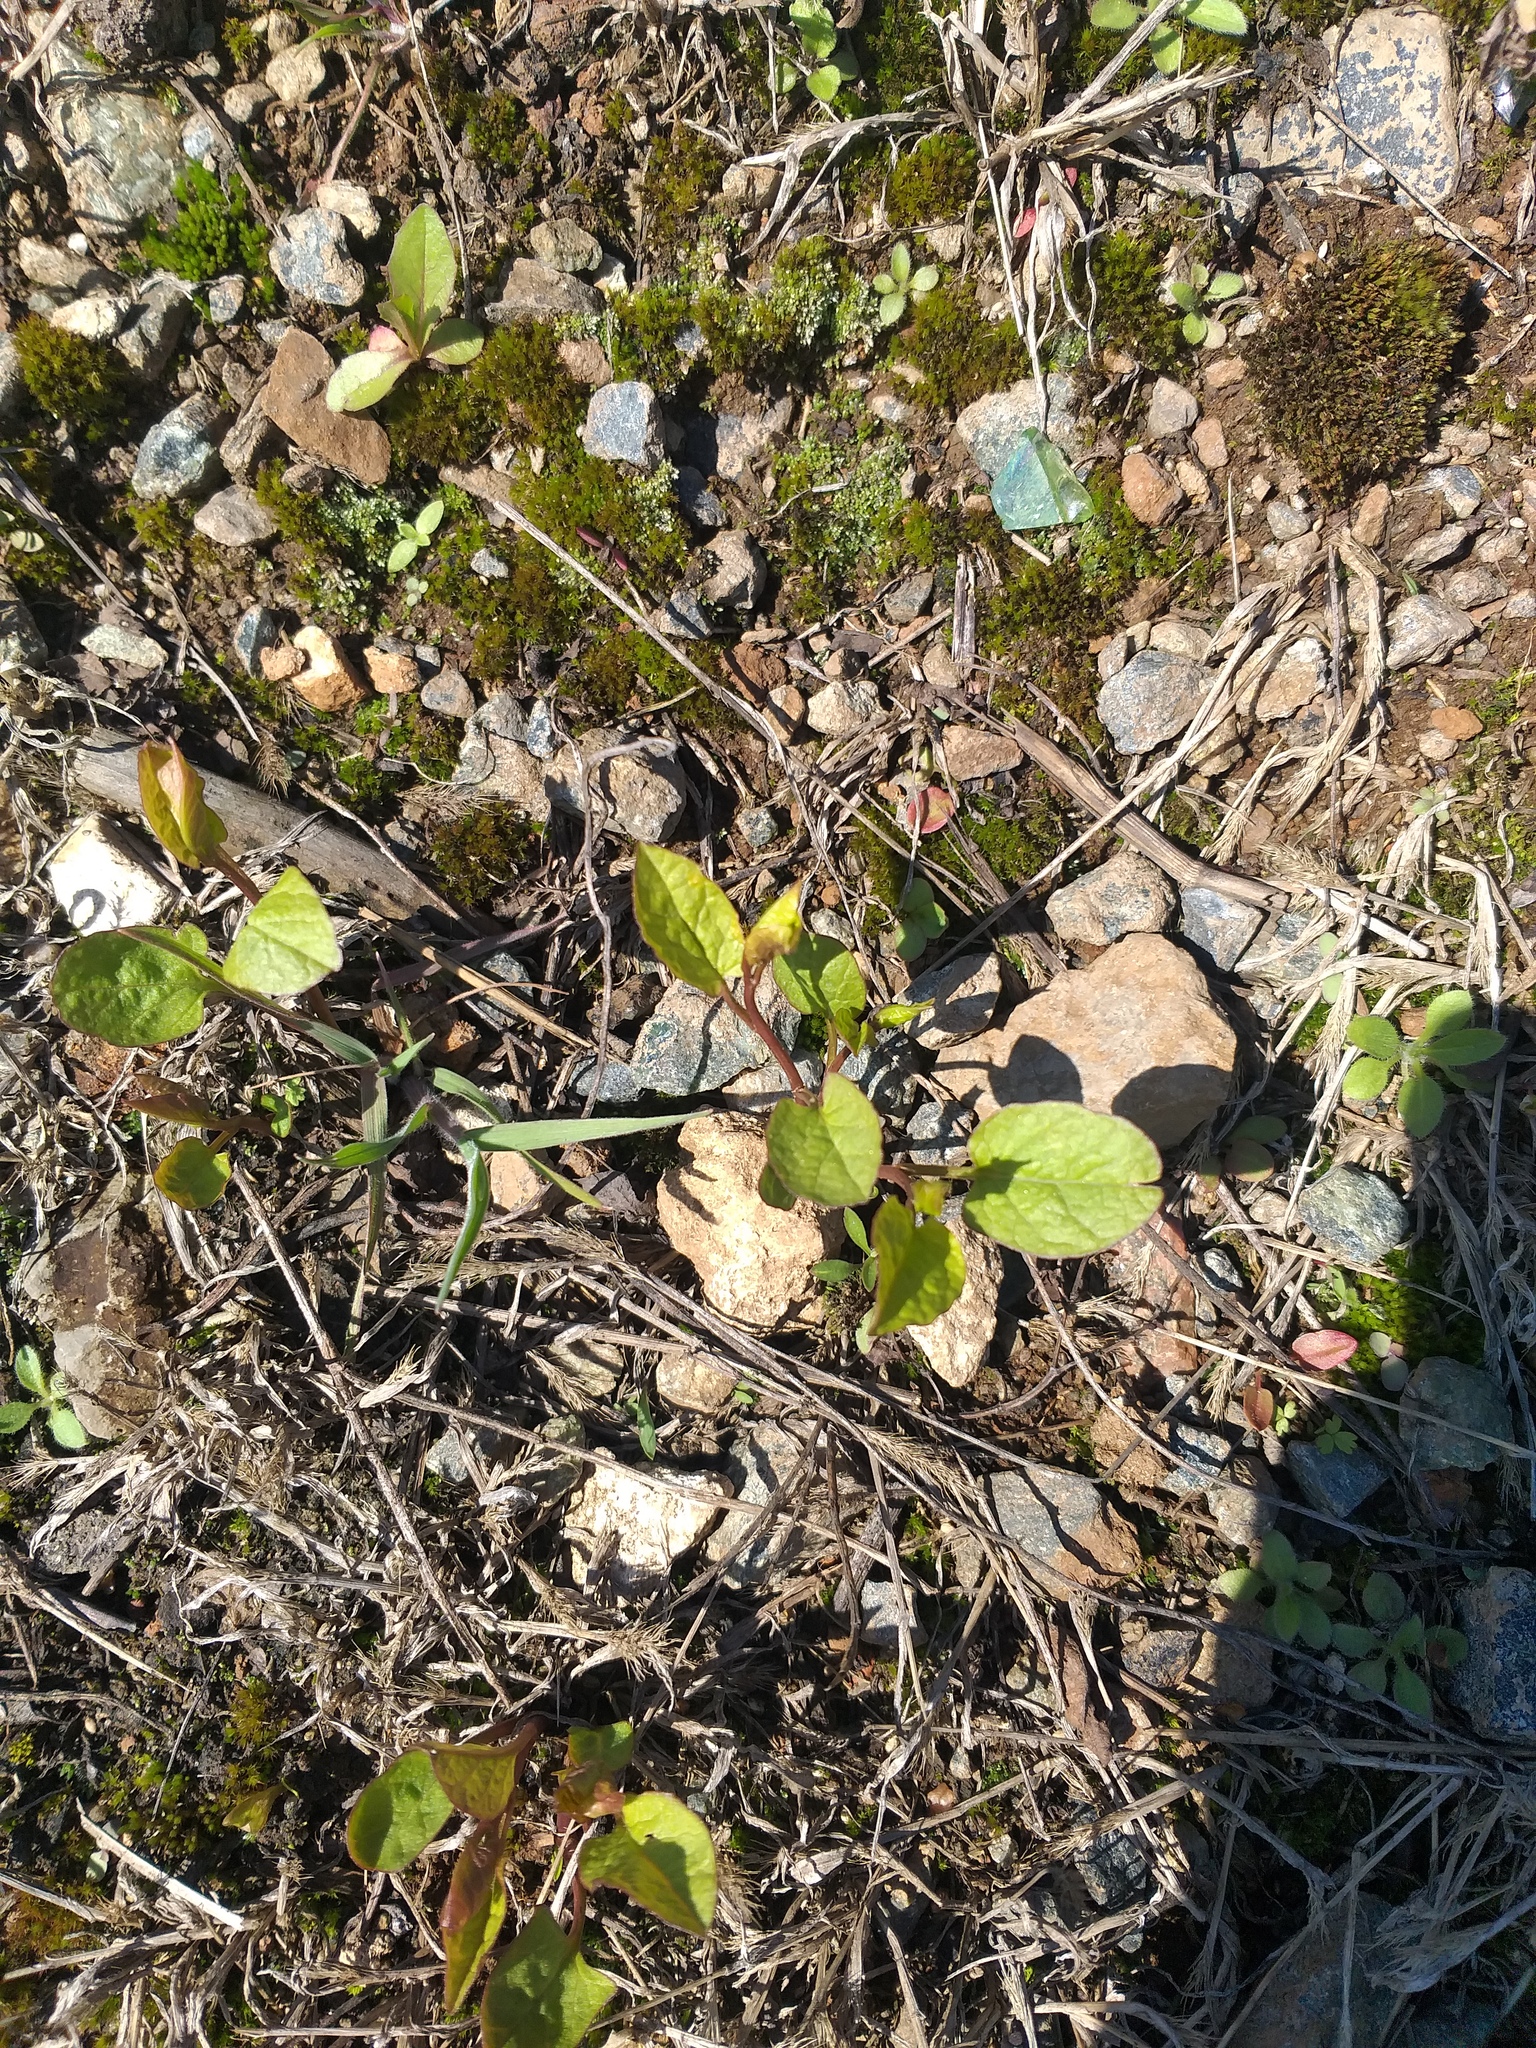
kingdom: Plantae
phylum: Tracheophyta
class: Magnoliopsida
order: Solanales
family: Convolvulaceae
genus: Convolvulus
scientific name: Convolvulus arvensis
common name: Field bindweed
